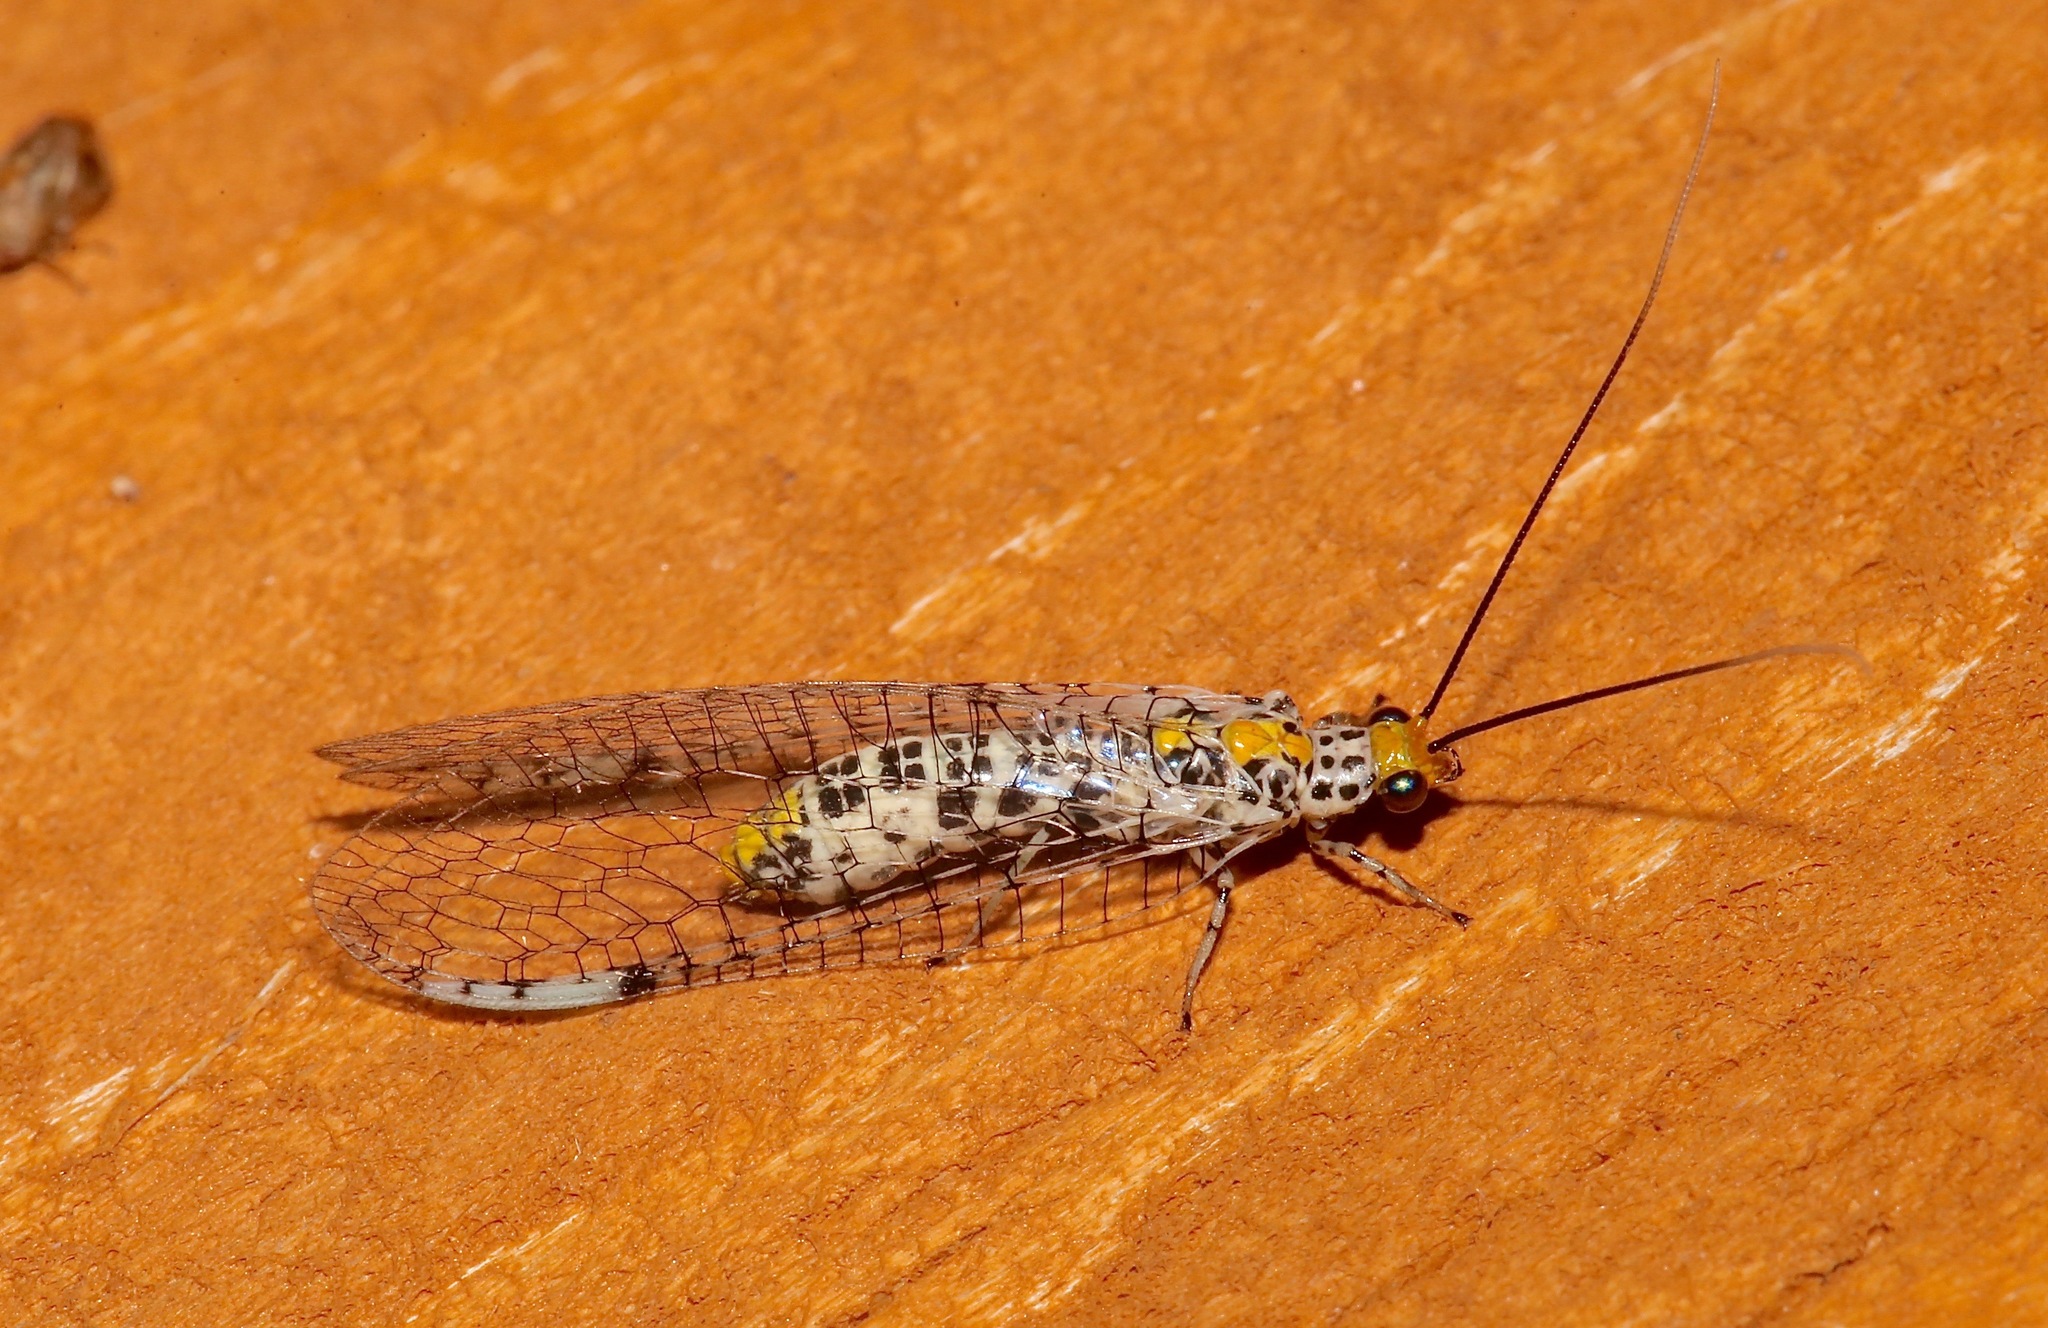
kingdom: Animalia
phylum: Arthropoda
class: Insecta
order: Neuroptera
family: Chrysopidae
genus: Abachrysa
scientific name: Abachrysa eureka
